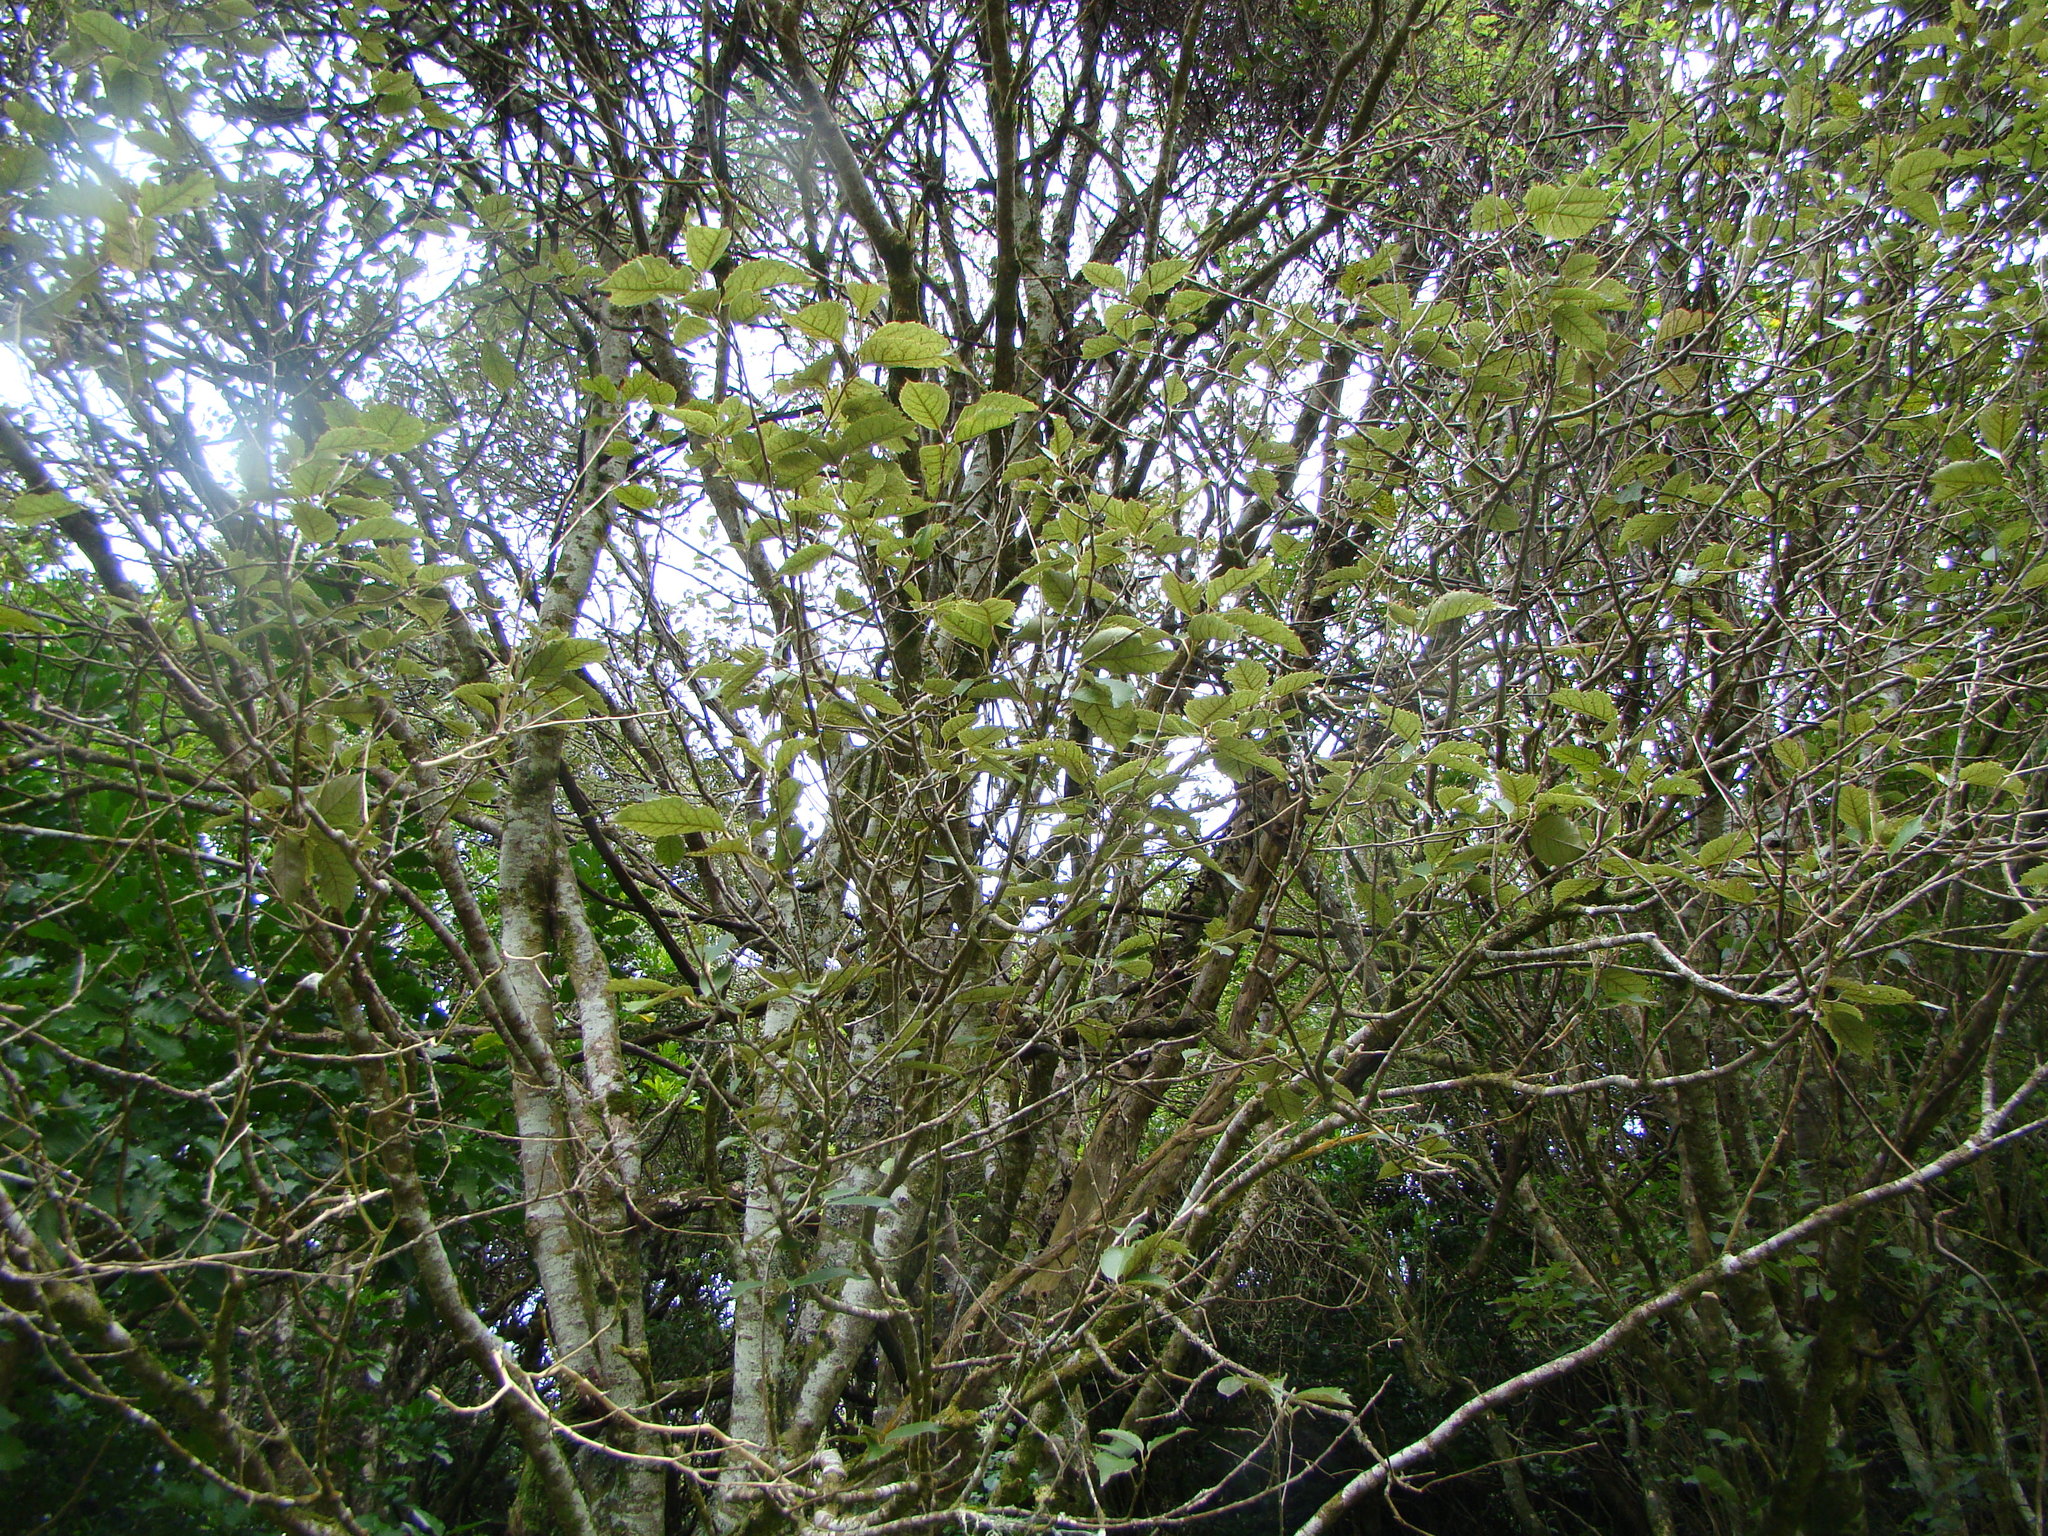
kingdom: Plantae
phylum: Tracheophyta
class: Magnoliopsida
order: Malvales
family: Malvaceae
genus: Hoheria
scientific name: Hoheria populnea
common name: Lacebark
